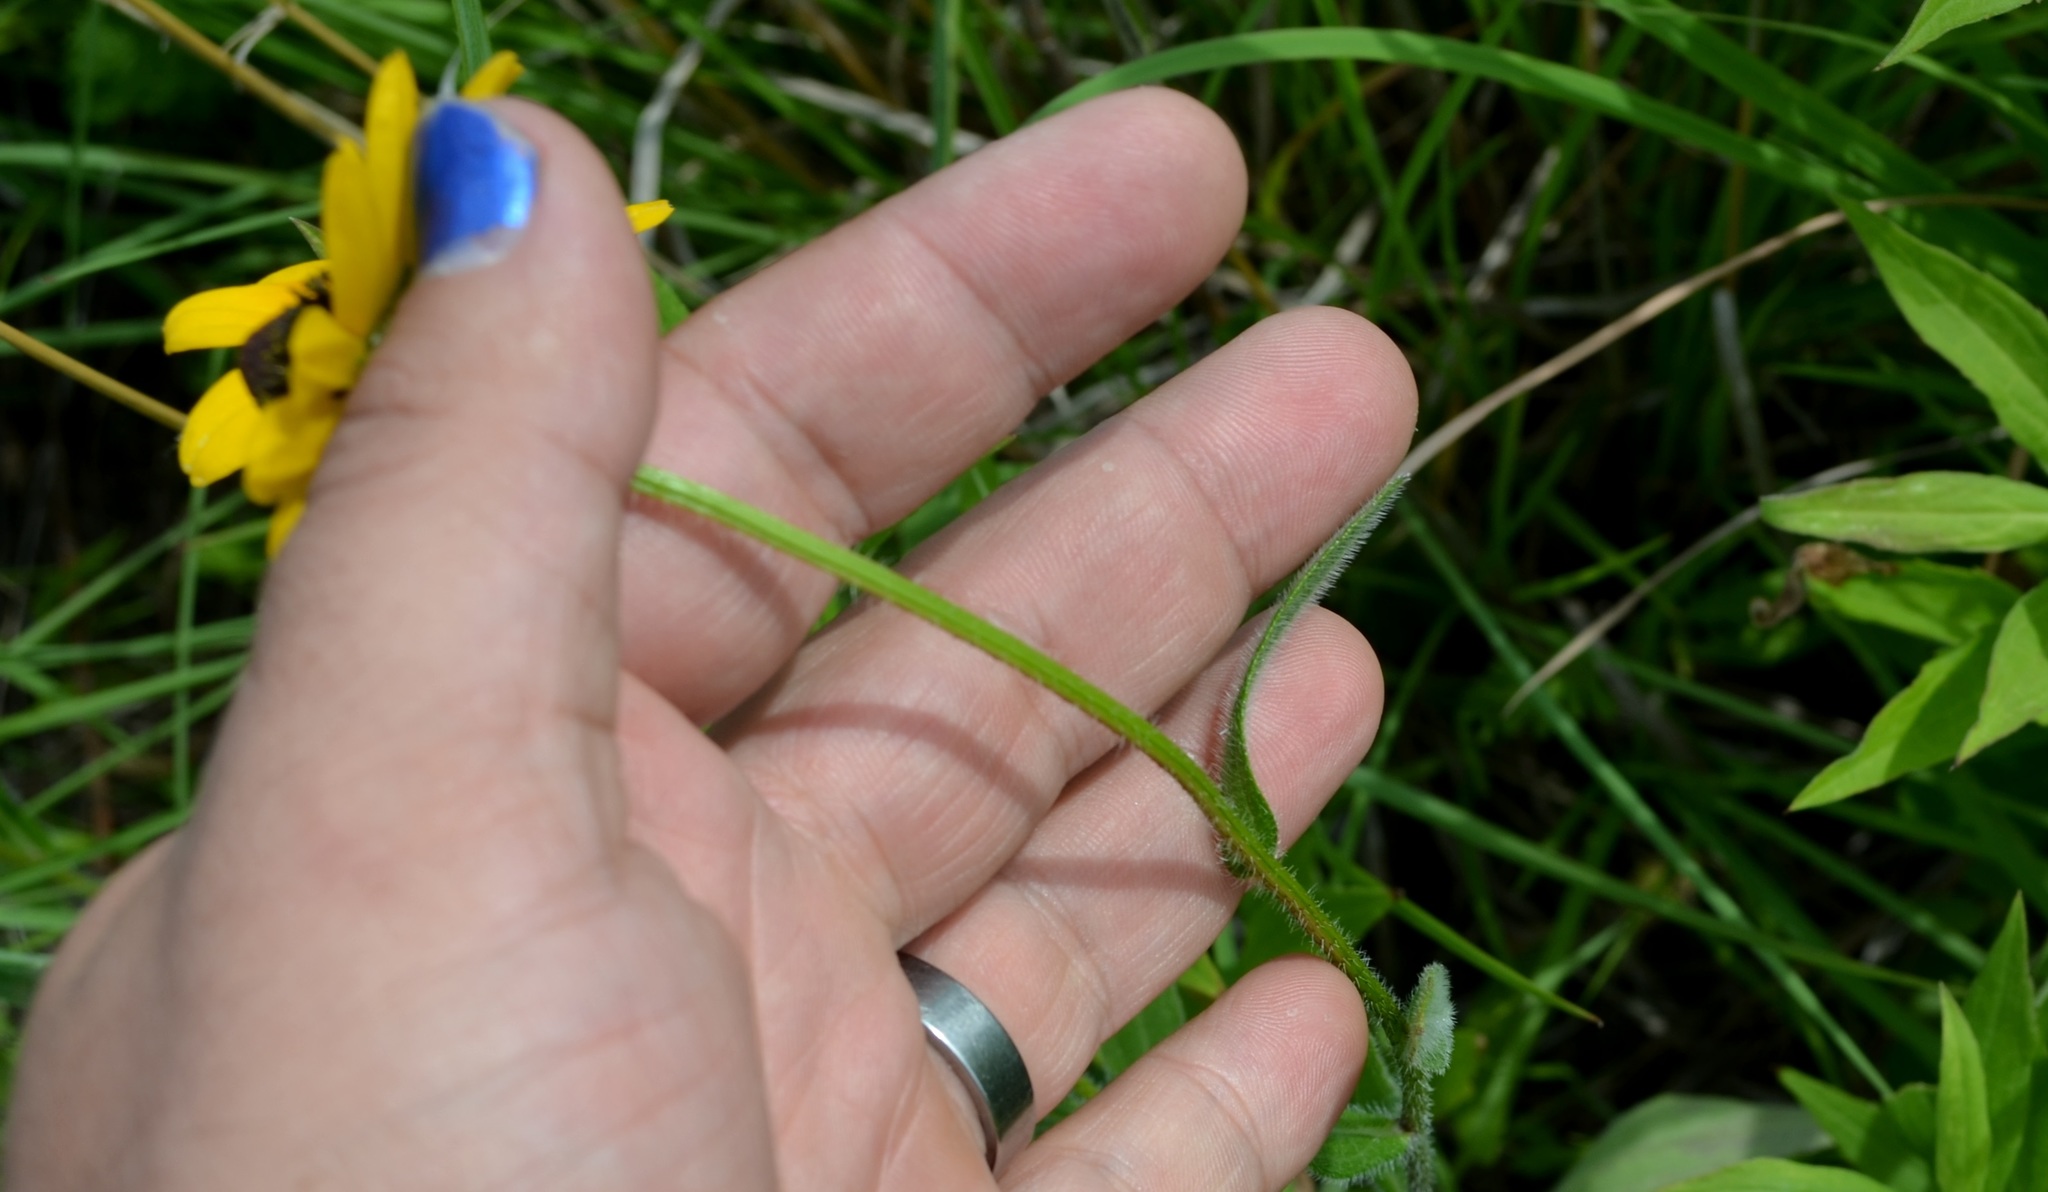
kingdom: Plantae
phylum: Tracheophyta
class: Magnoliopsida
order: Asterales
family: Asteraceae
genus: Rudbeckia
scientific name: Rudbeckia hirta
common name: Black-eyed-susan
